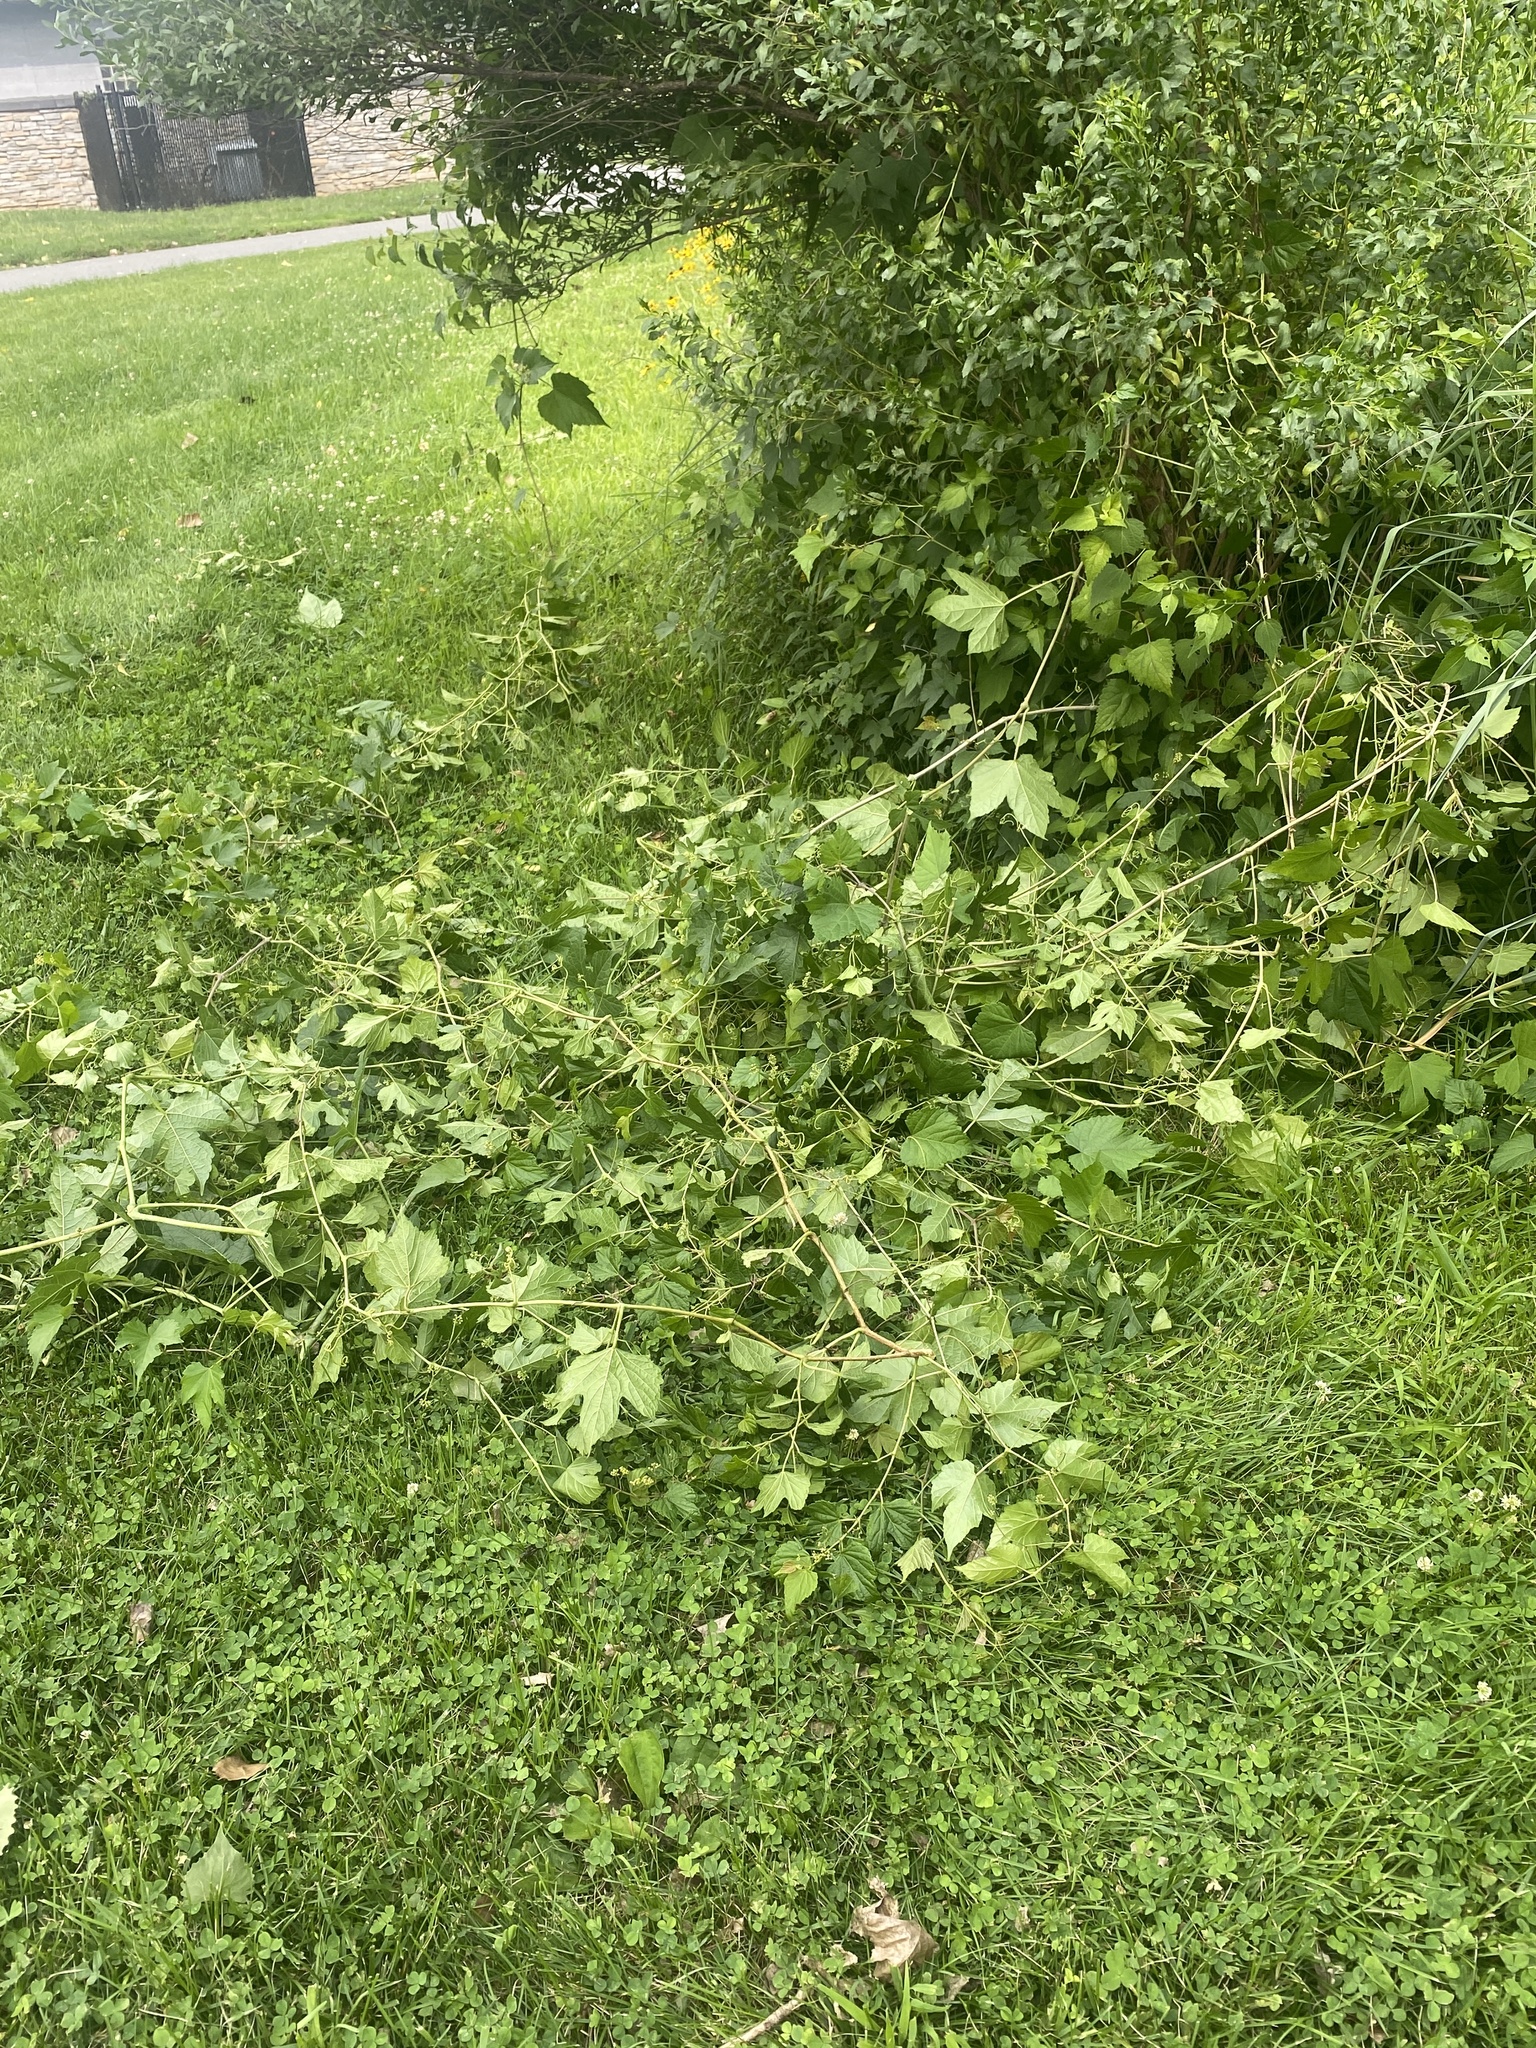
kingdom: Plantae
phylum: Tracheophyta
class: Magnoliopsida
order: Vitales
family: Vitaceae
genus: Ampelopsis
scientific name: Ampelopsis glandulosa
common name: Amur peppervine
